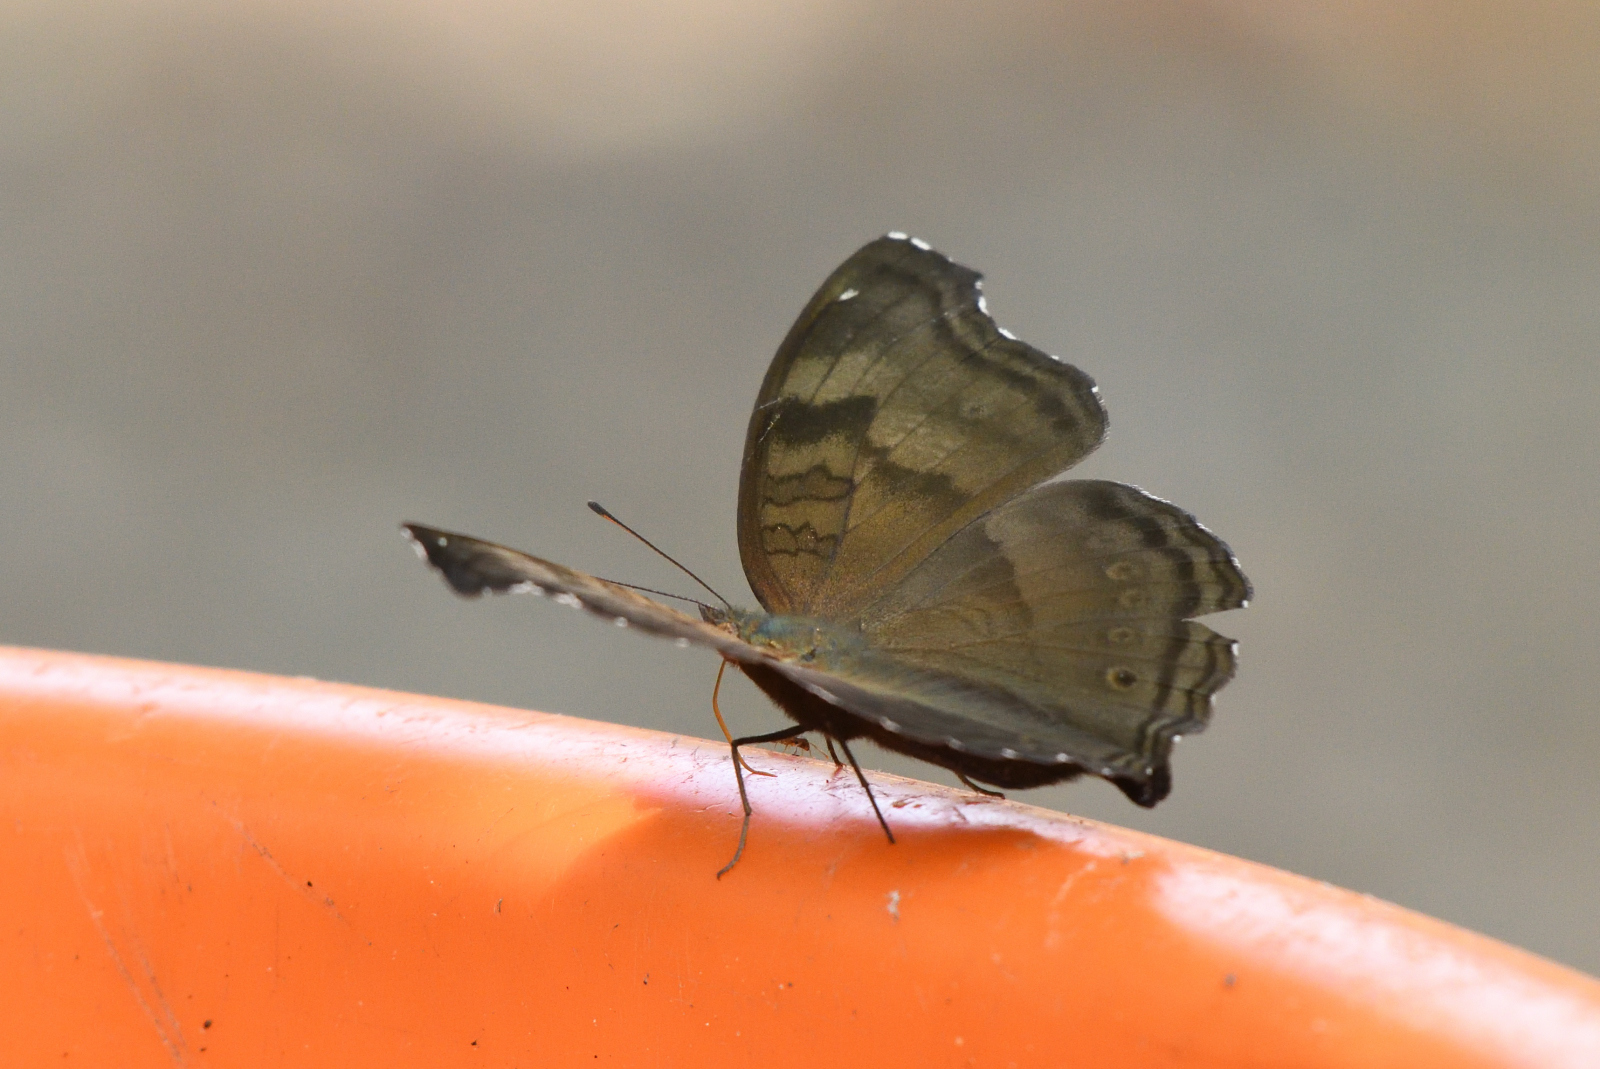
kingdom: Animalia
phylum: Arthropoda
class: Insecta
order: Lepidoptera
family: Nymphalidae
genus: Junonia
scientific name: Junonia iphita
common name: Chocolate pansy
